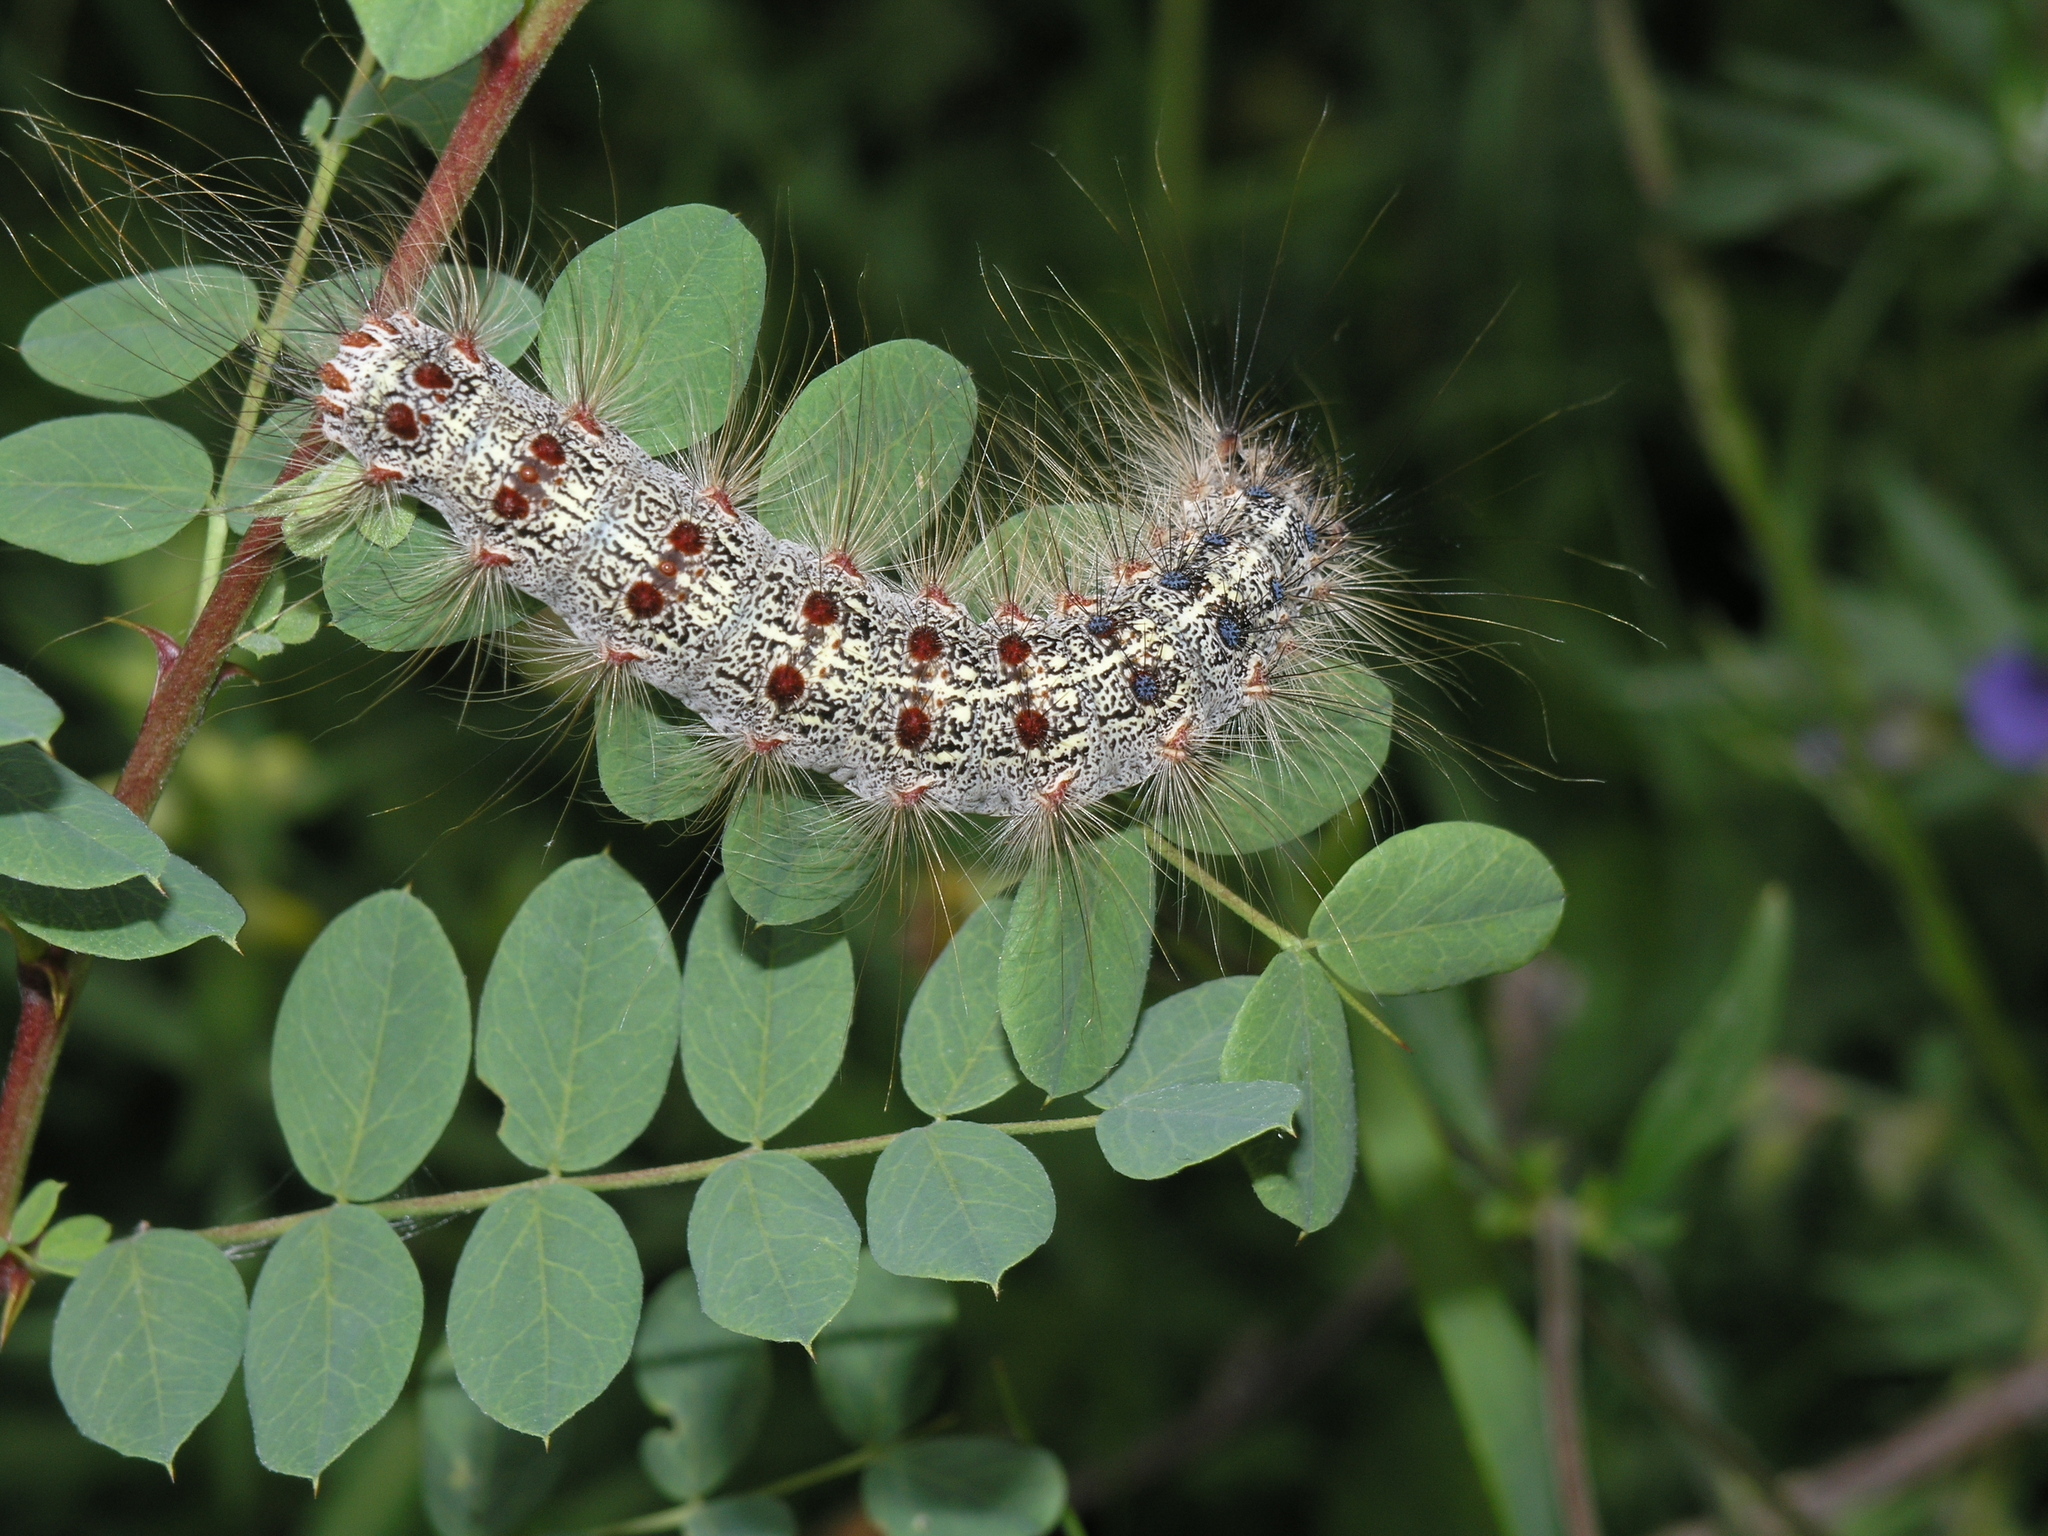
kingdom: Animalia
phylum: Arthropoda
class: Insecta
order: Lepidoptera
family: Erebidae
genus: Lymantria
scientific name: Lymantria dispar
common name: Gypsy moth
